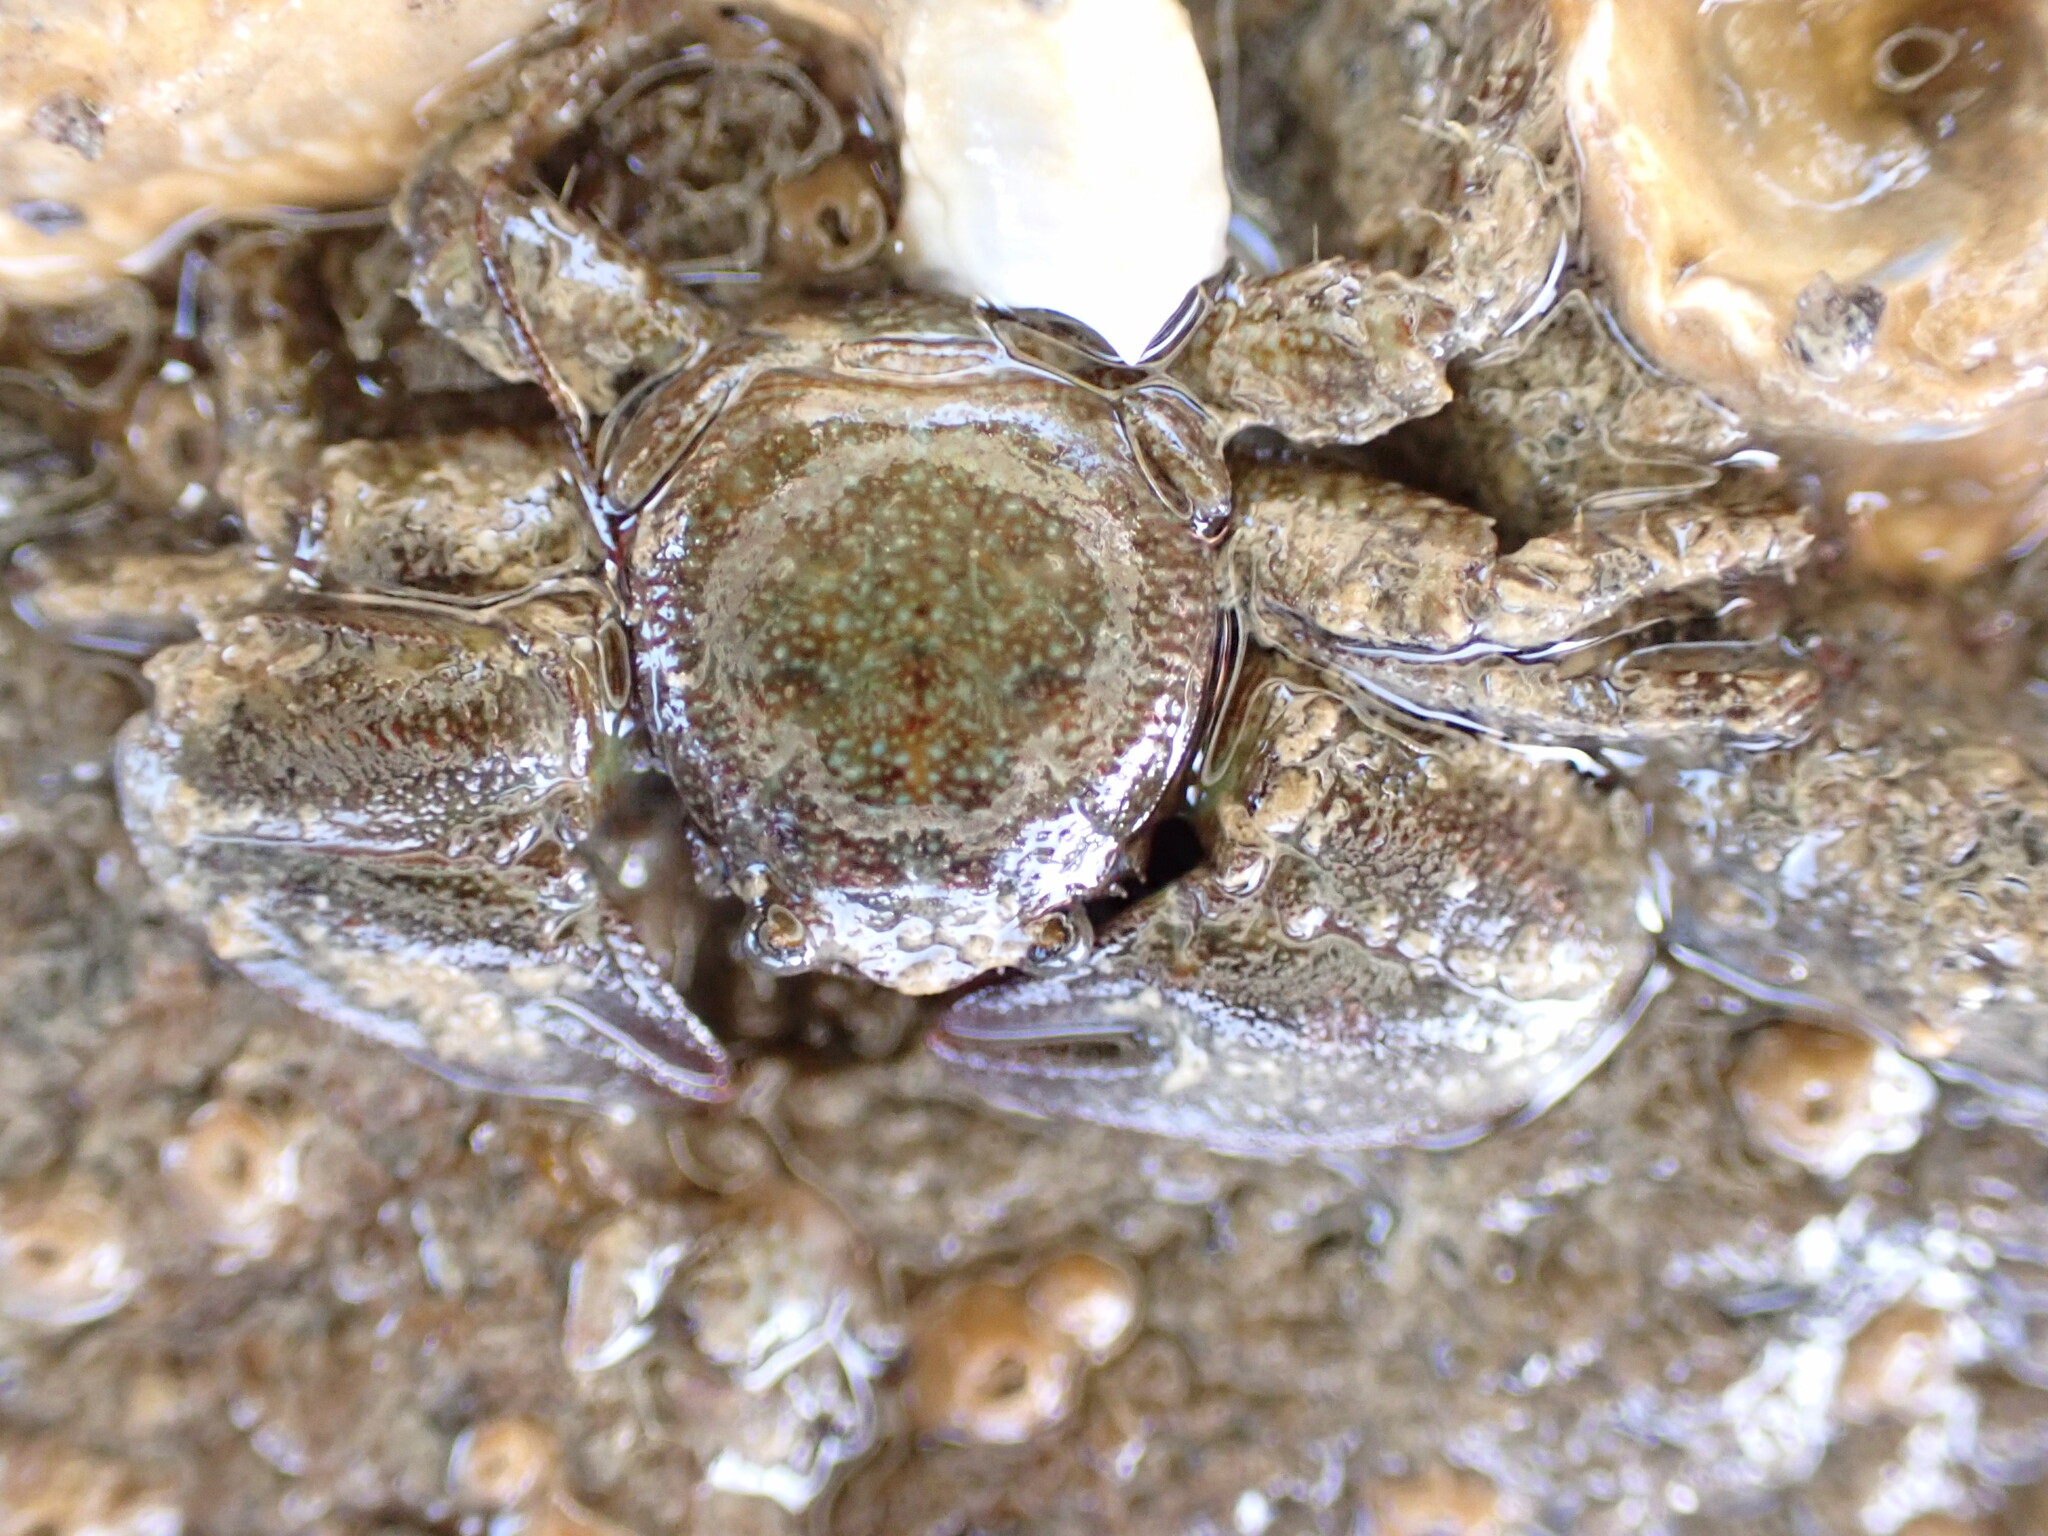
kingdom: Animalia
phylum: Arthropoda
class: Malacostraca
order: Decapoda
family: Porcellanidae
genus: Petrolisthes
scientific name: Petrolisthes elongatus
